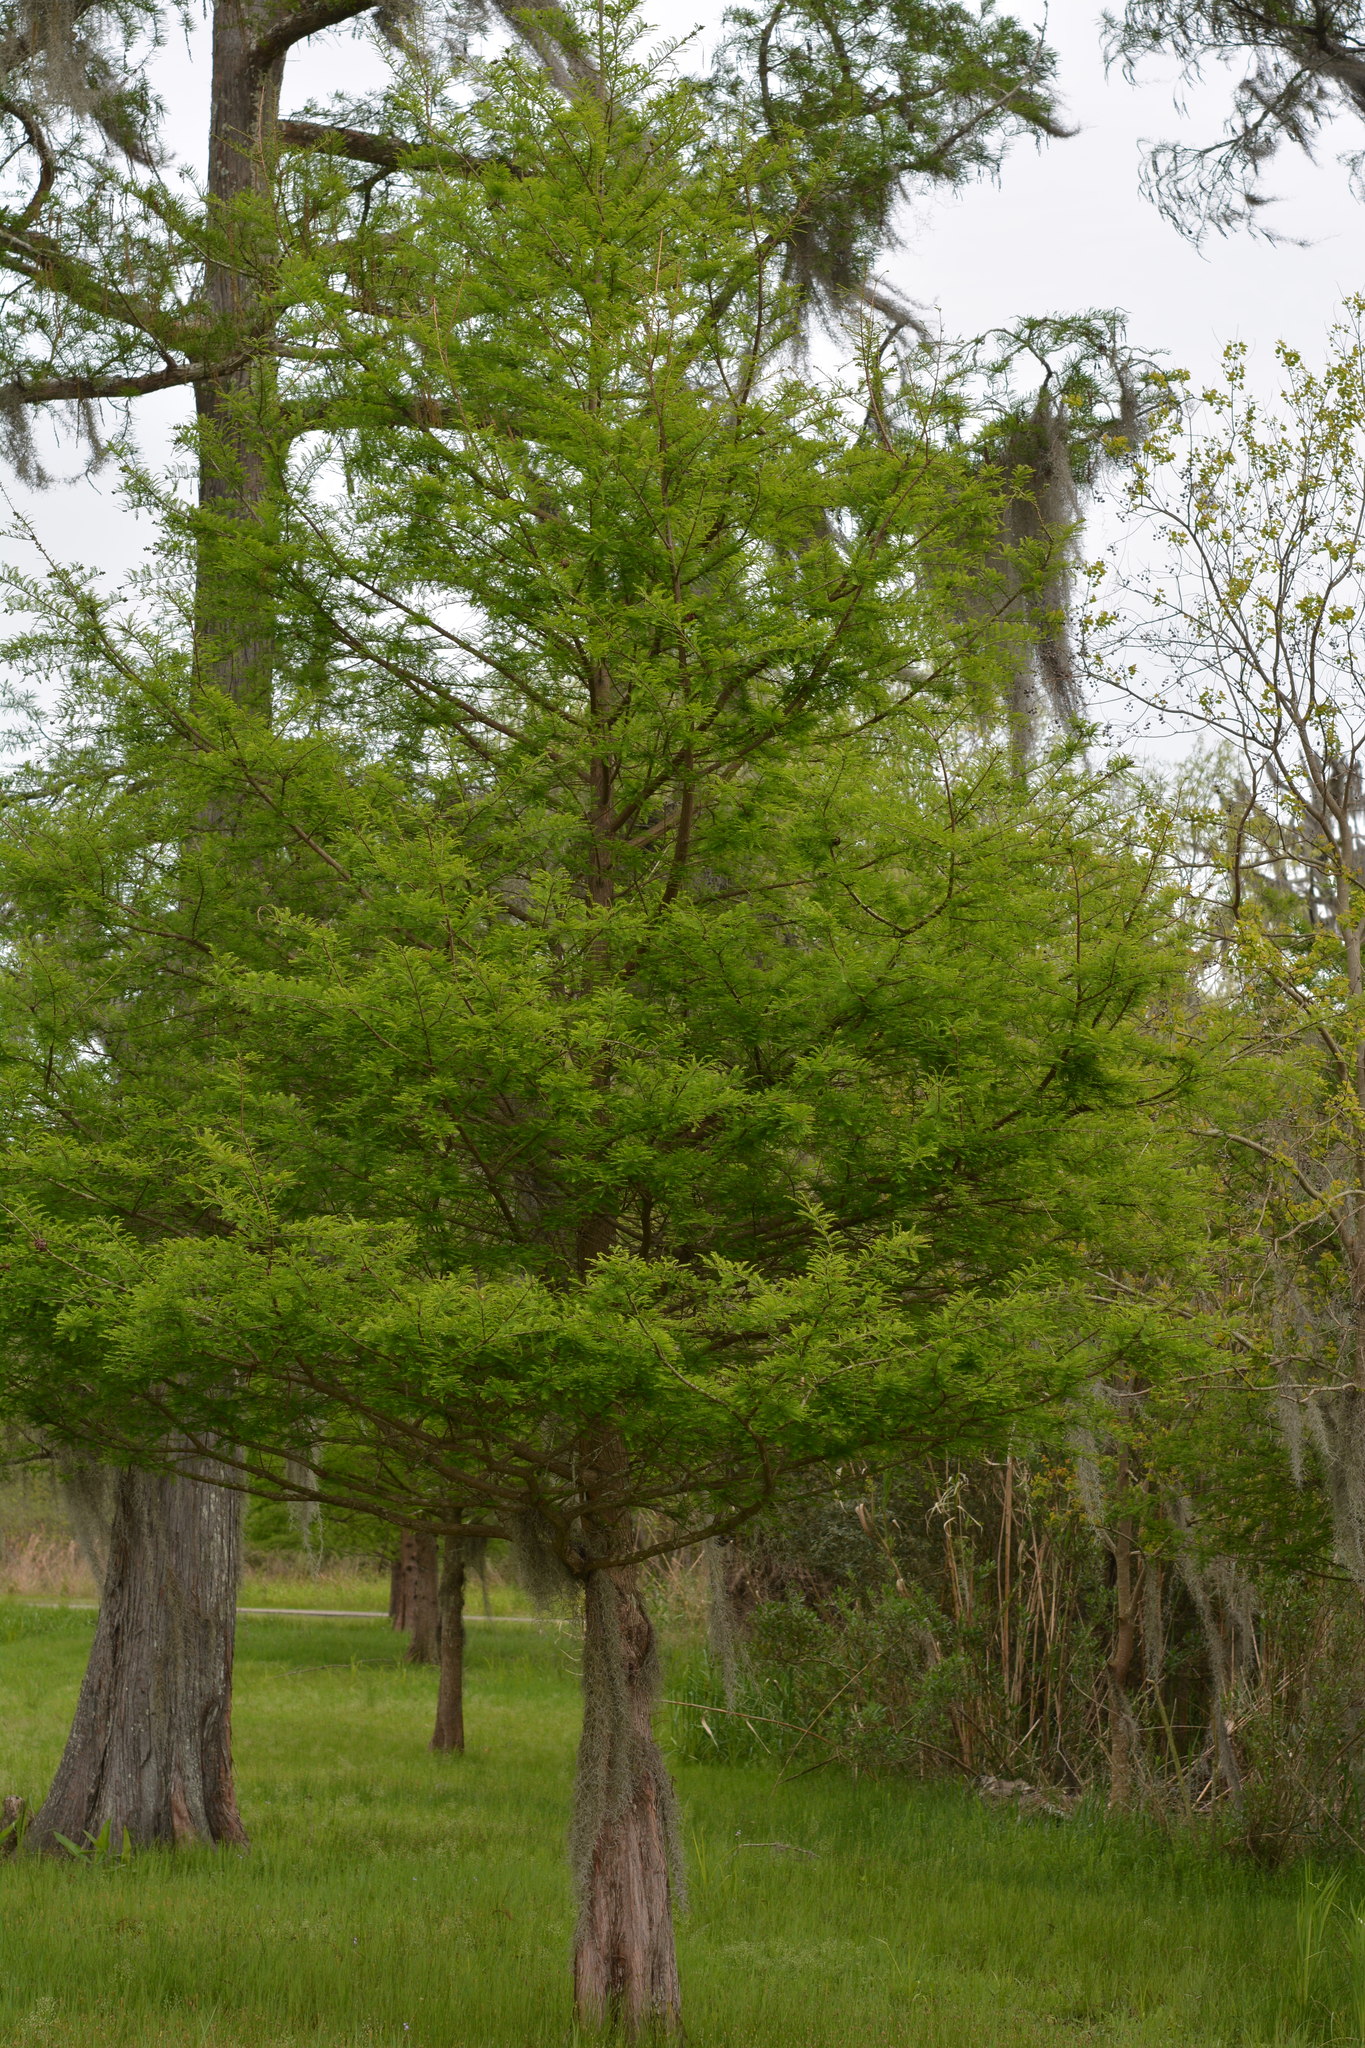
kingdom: Plantae
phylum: Tracheophyta
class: Pinopsida
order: Pinales
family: Cupressaceae
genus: Taxodium
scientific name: Taxodium distichum
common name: Bald cypress
